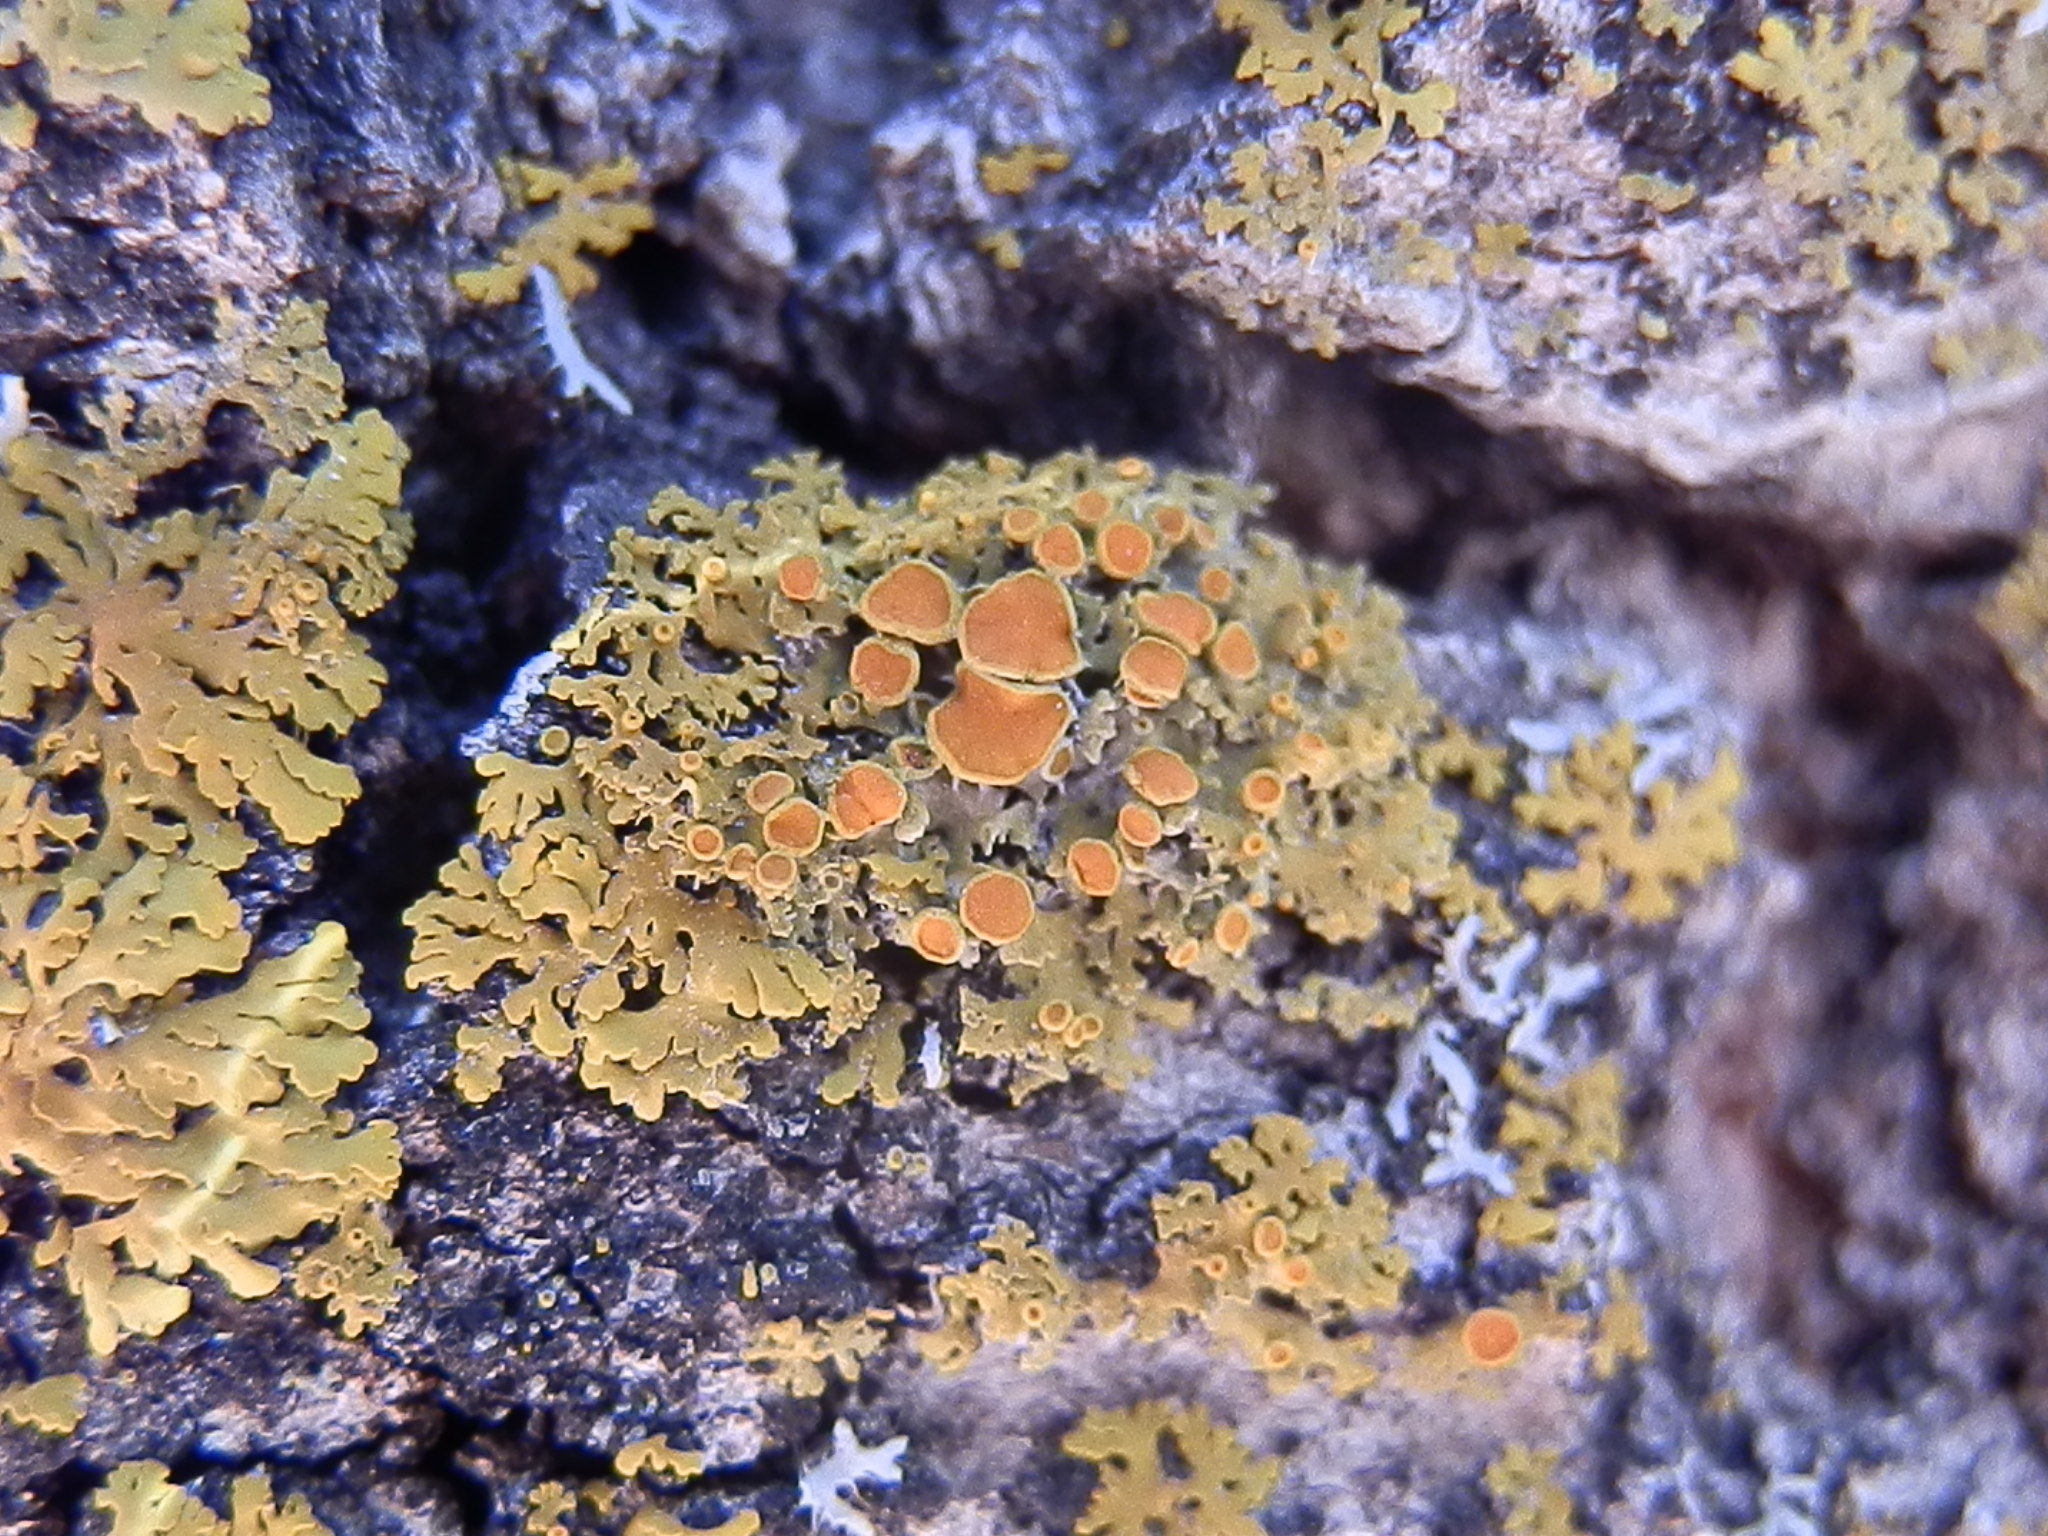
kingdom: Fungi
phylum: Ascomycota
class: Lecanoromycetes
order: Teloschistales
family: Teloschistaceae
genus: Gallowayella
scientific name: Gallowayella hasseana
